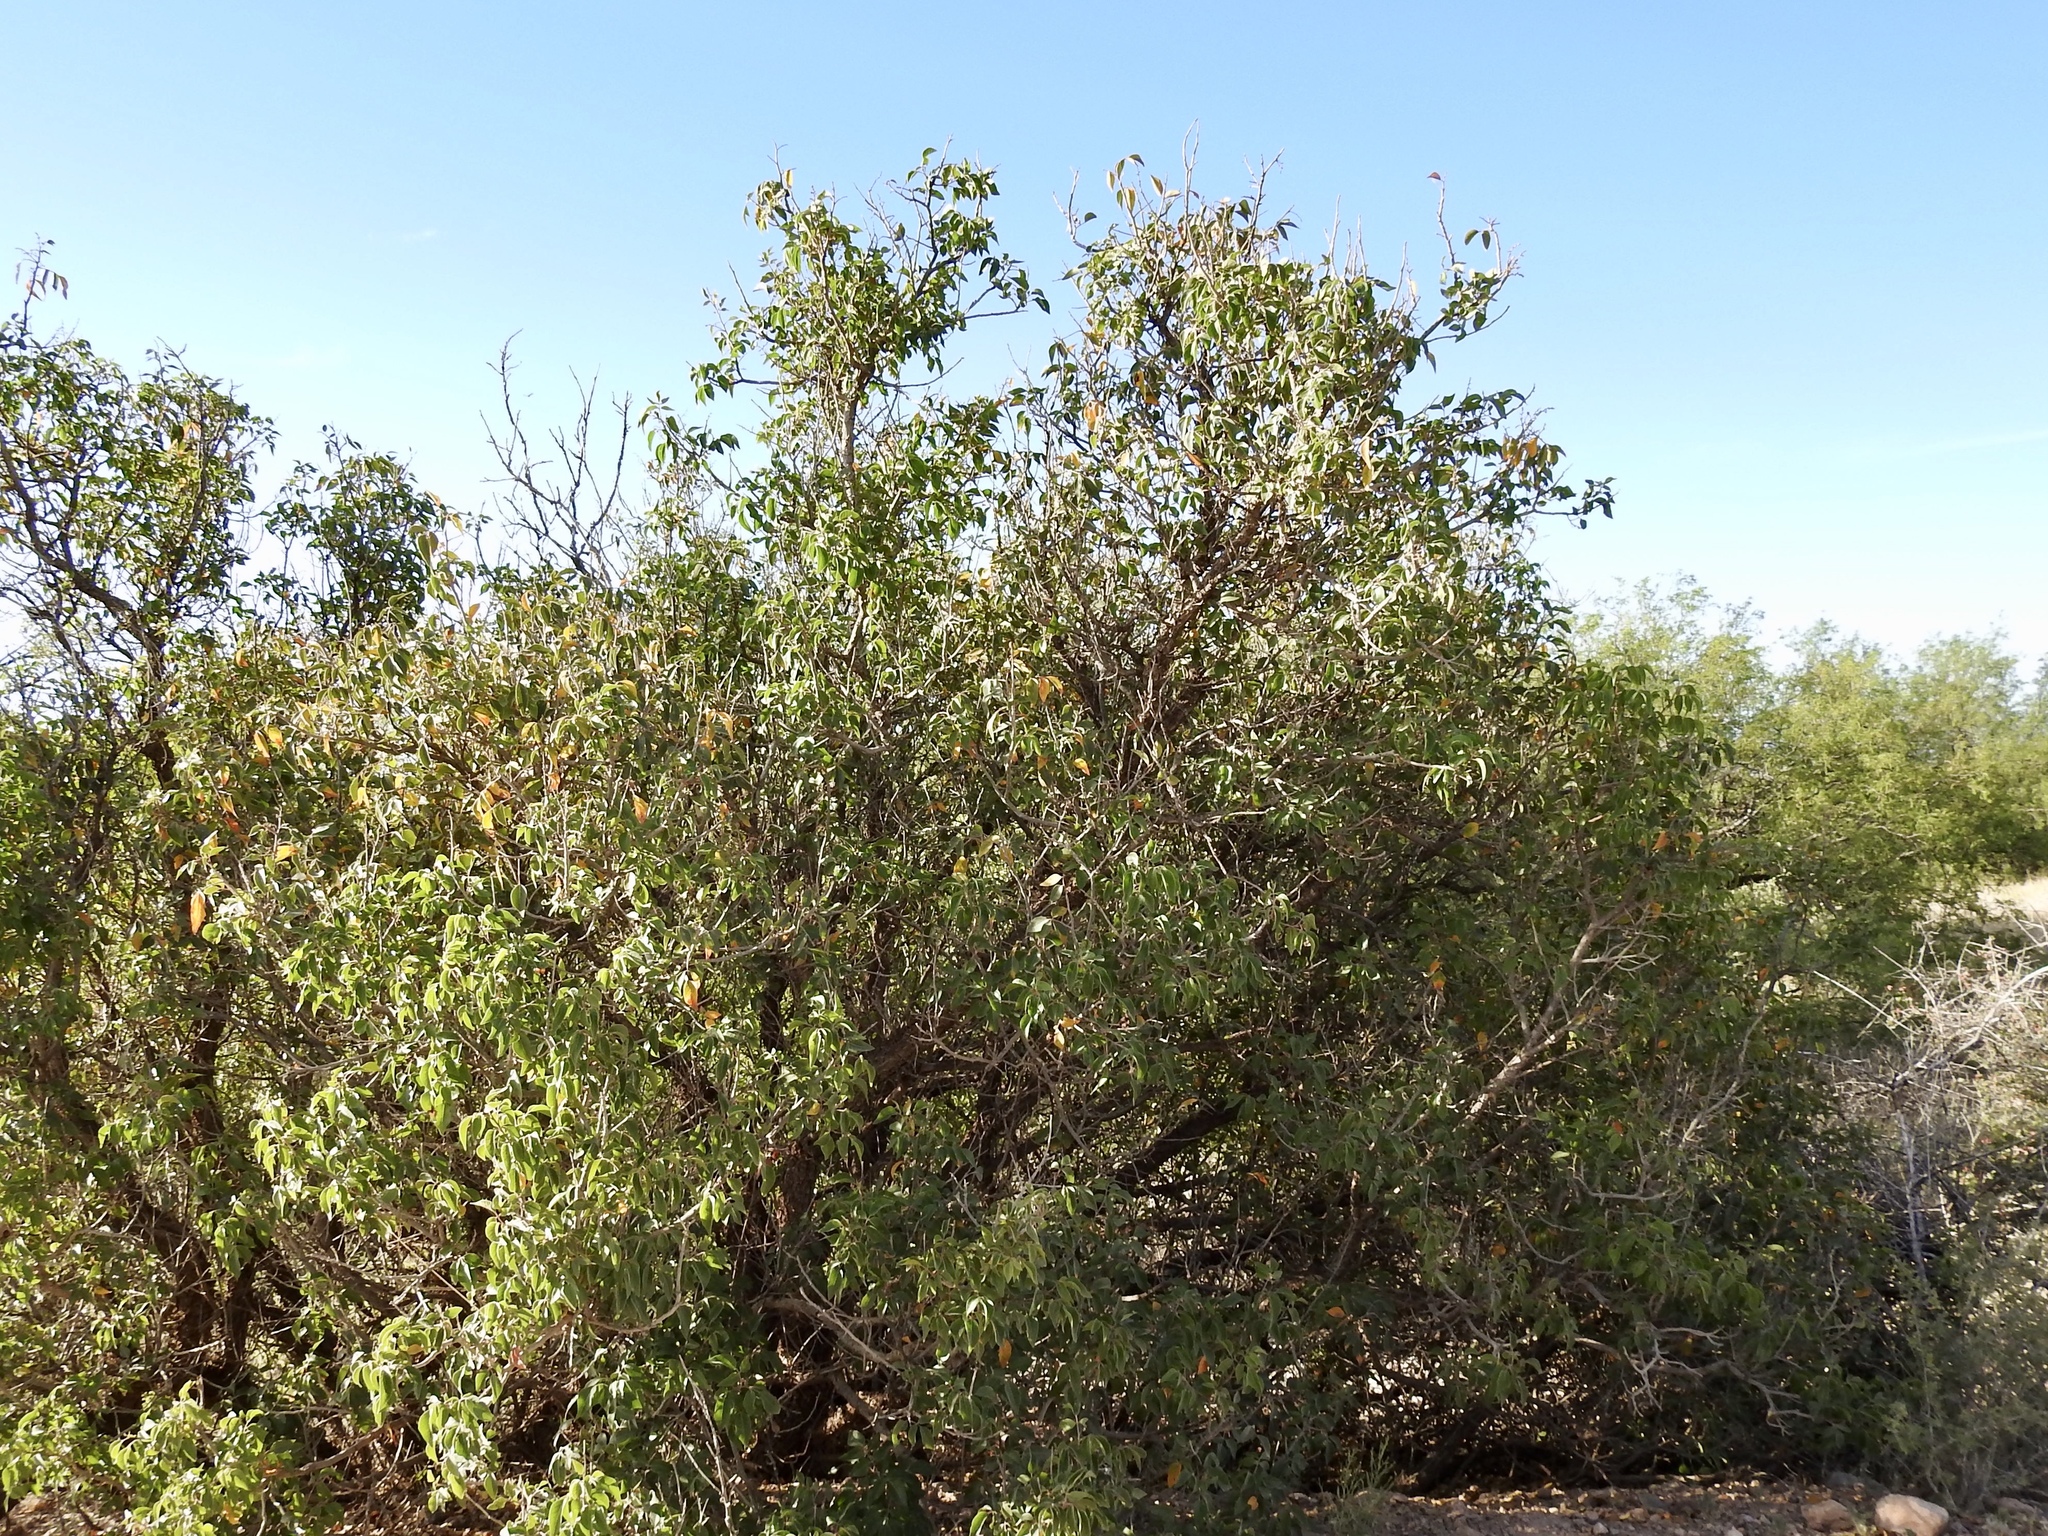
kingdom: Plantae
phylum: Tracheophyta
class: Magnoliopsida
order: Sapindales
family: Anacardiaceae
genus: Rhus
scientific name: Rhus ovata
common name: Sugar sumac
